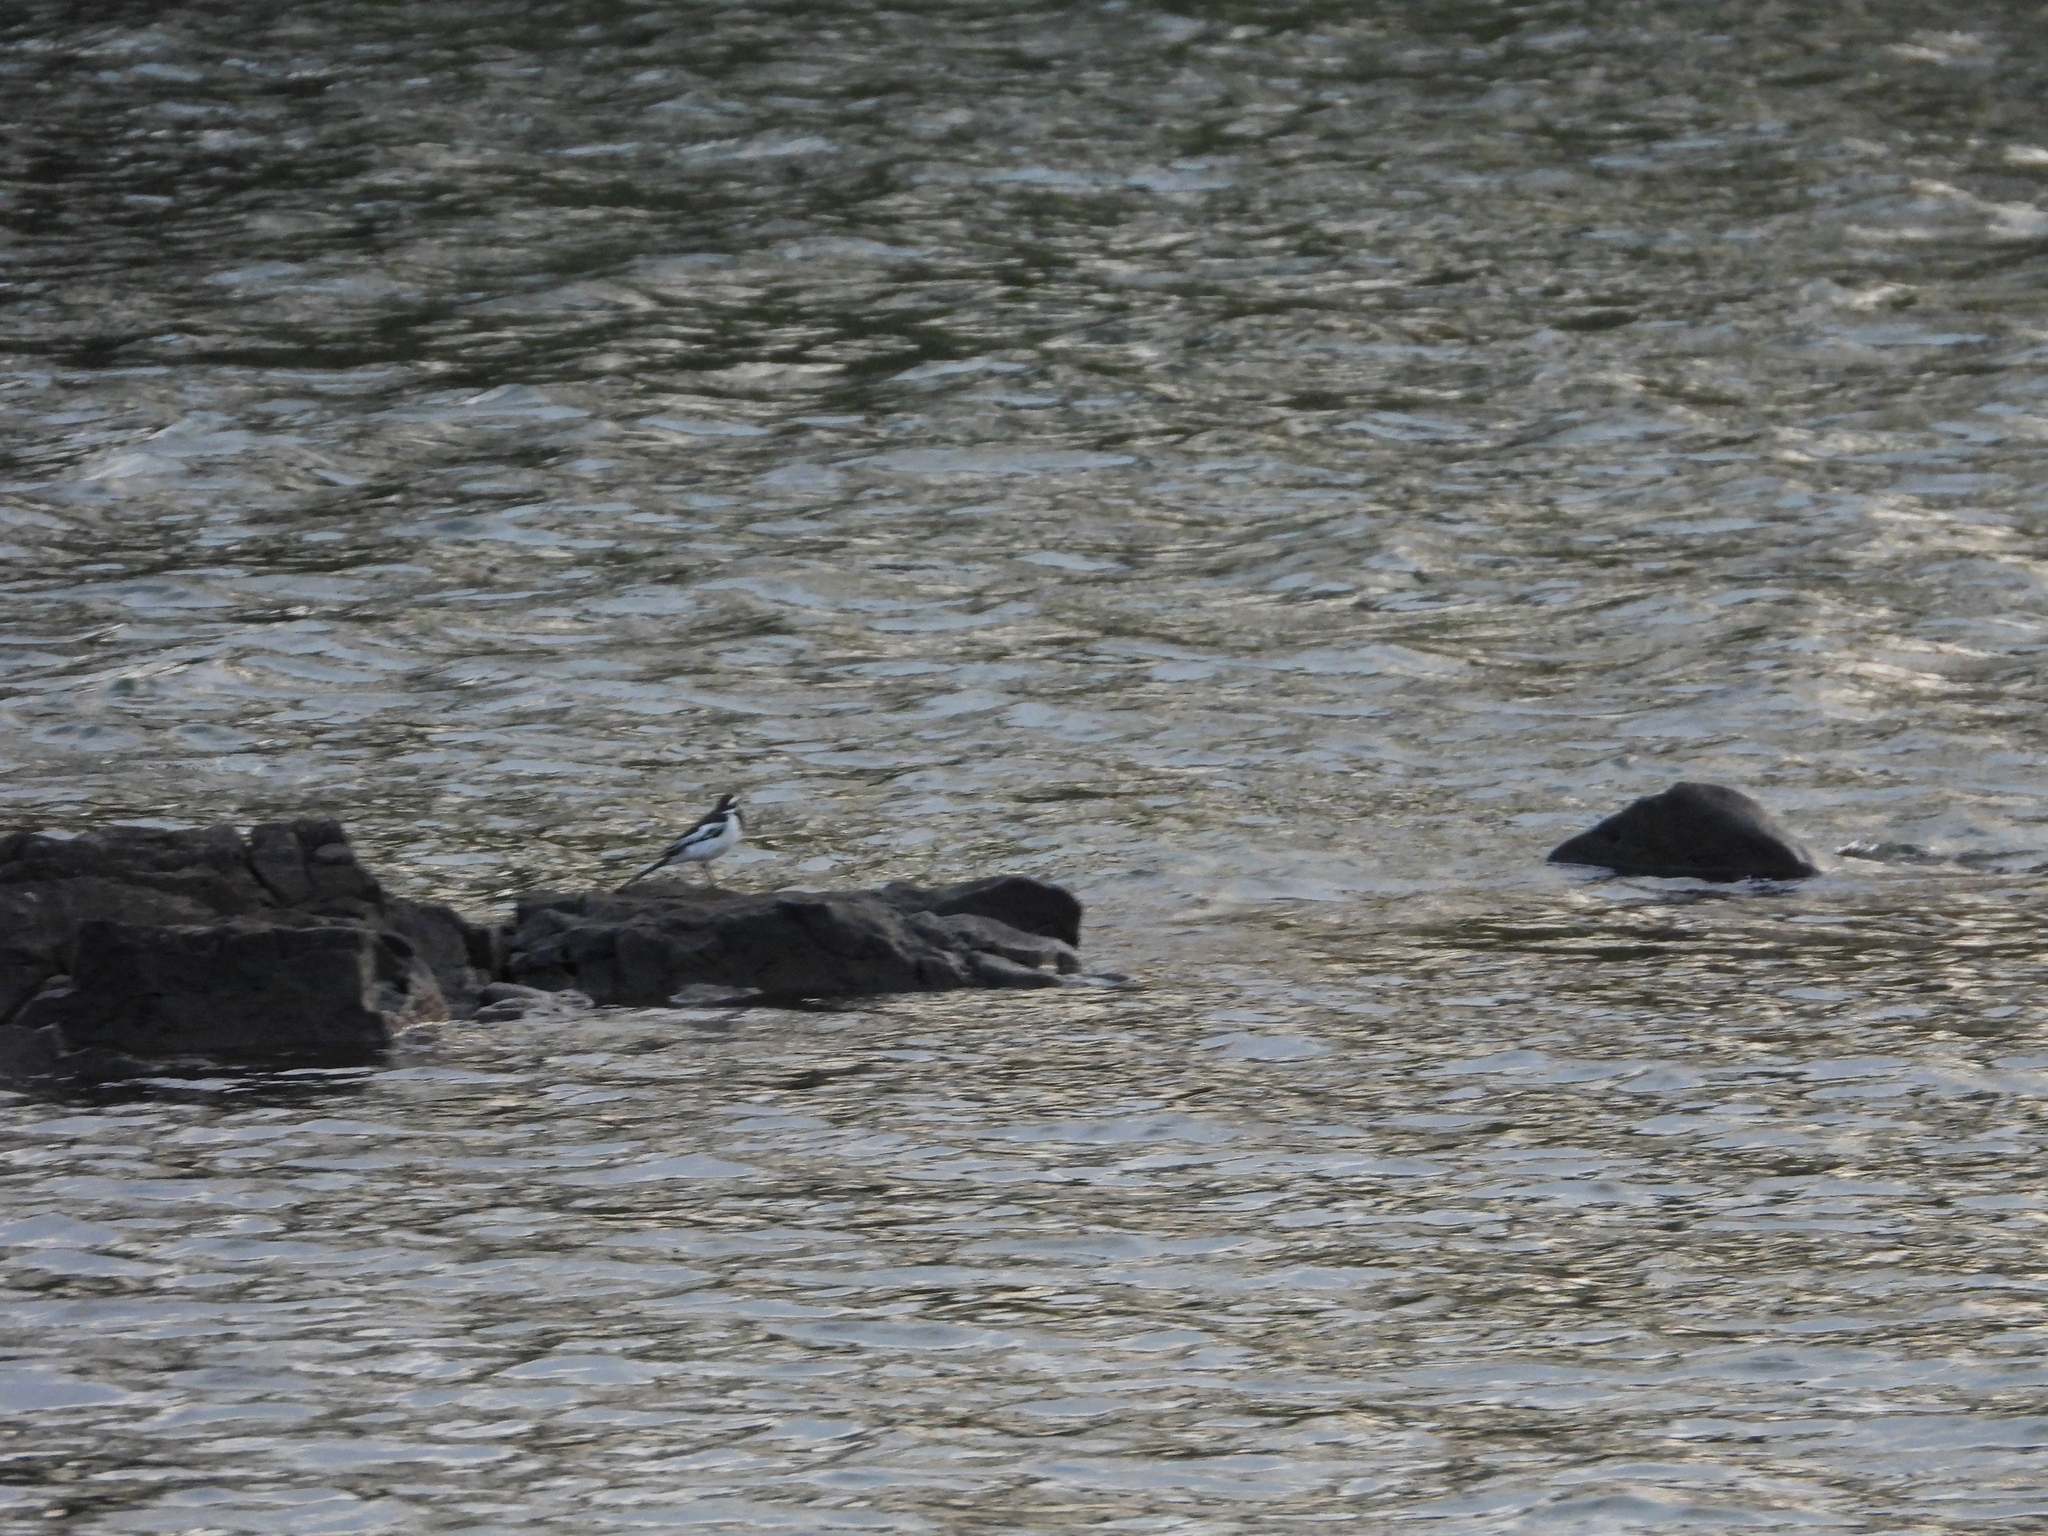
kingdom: Animalia
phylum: Chordata
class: Aves
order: Passeriformes
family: Motacillidae
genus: Motacilla
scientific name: Motacilla aguimp
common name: African pied wagtail
